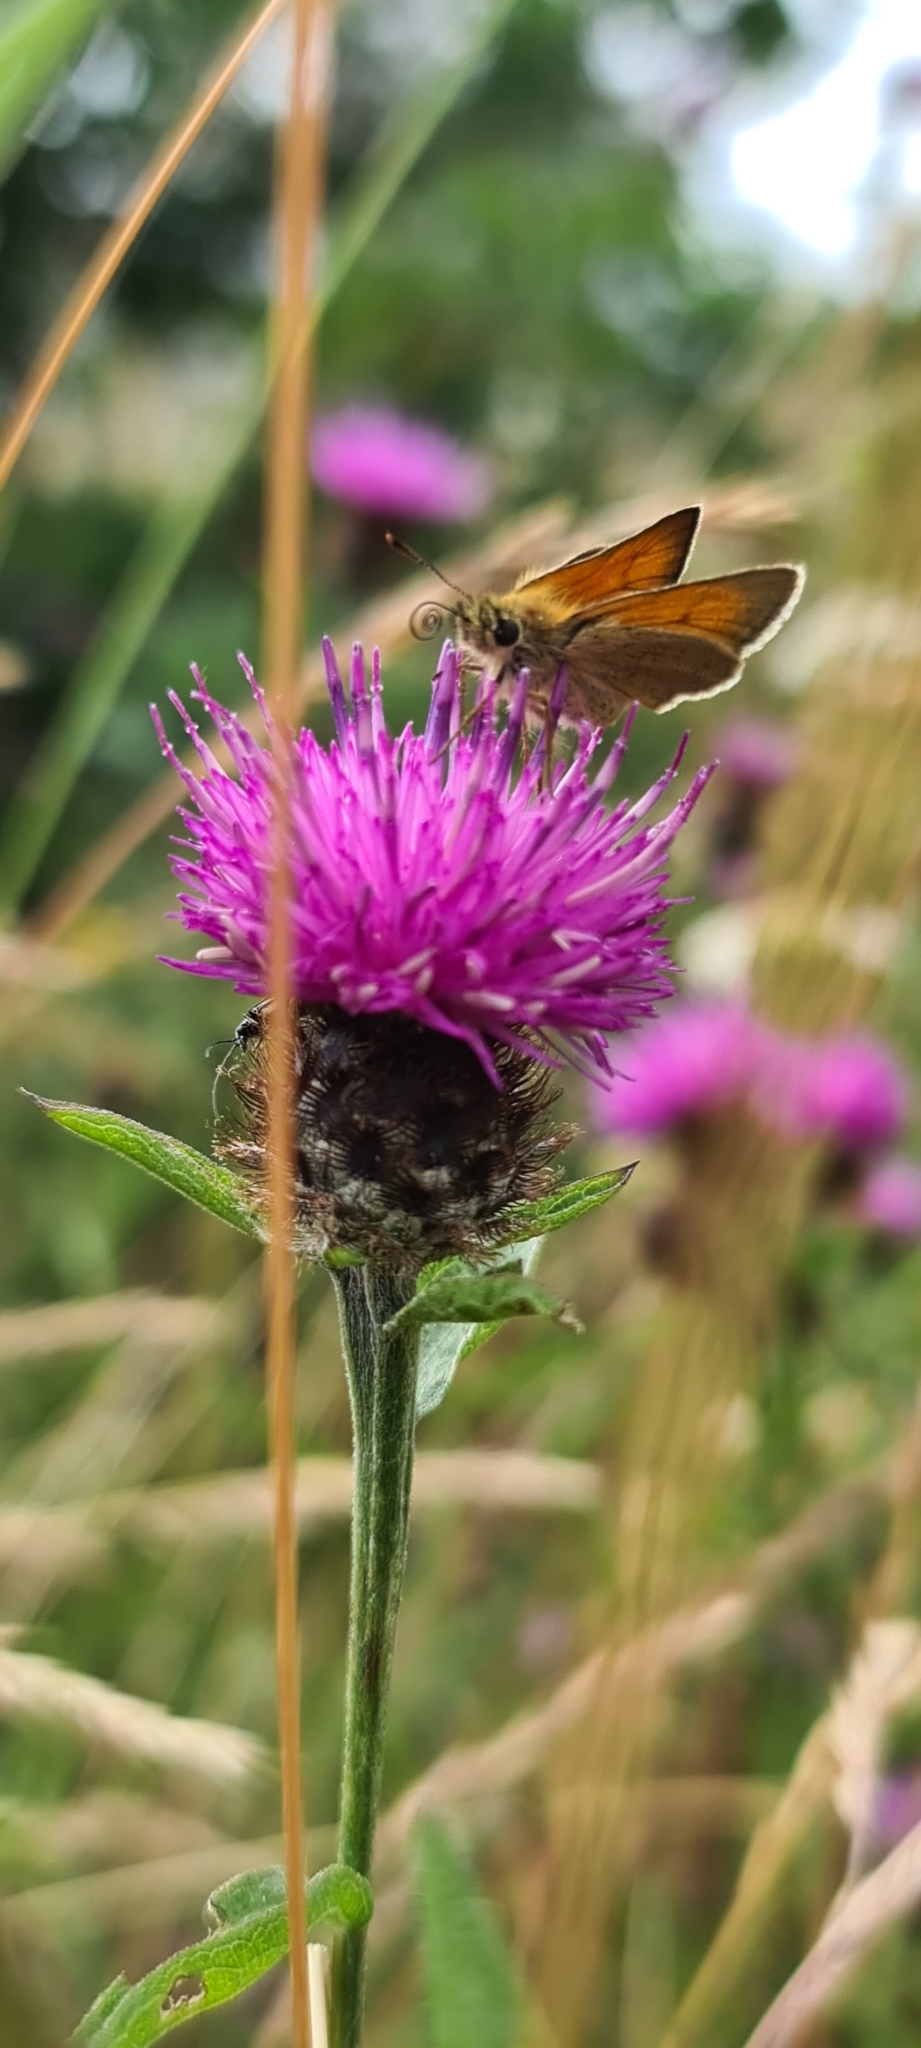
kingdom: Animalia
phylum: Arthropoda
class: Insecta
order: Lepidoptera
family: Hesperiidae
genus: Thymelicus
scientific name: Thymelicus sylvestris
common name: Small skipper
